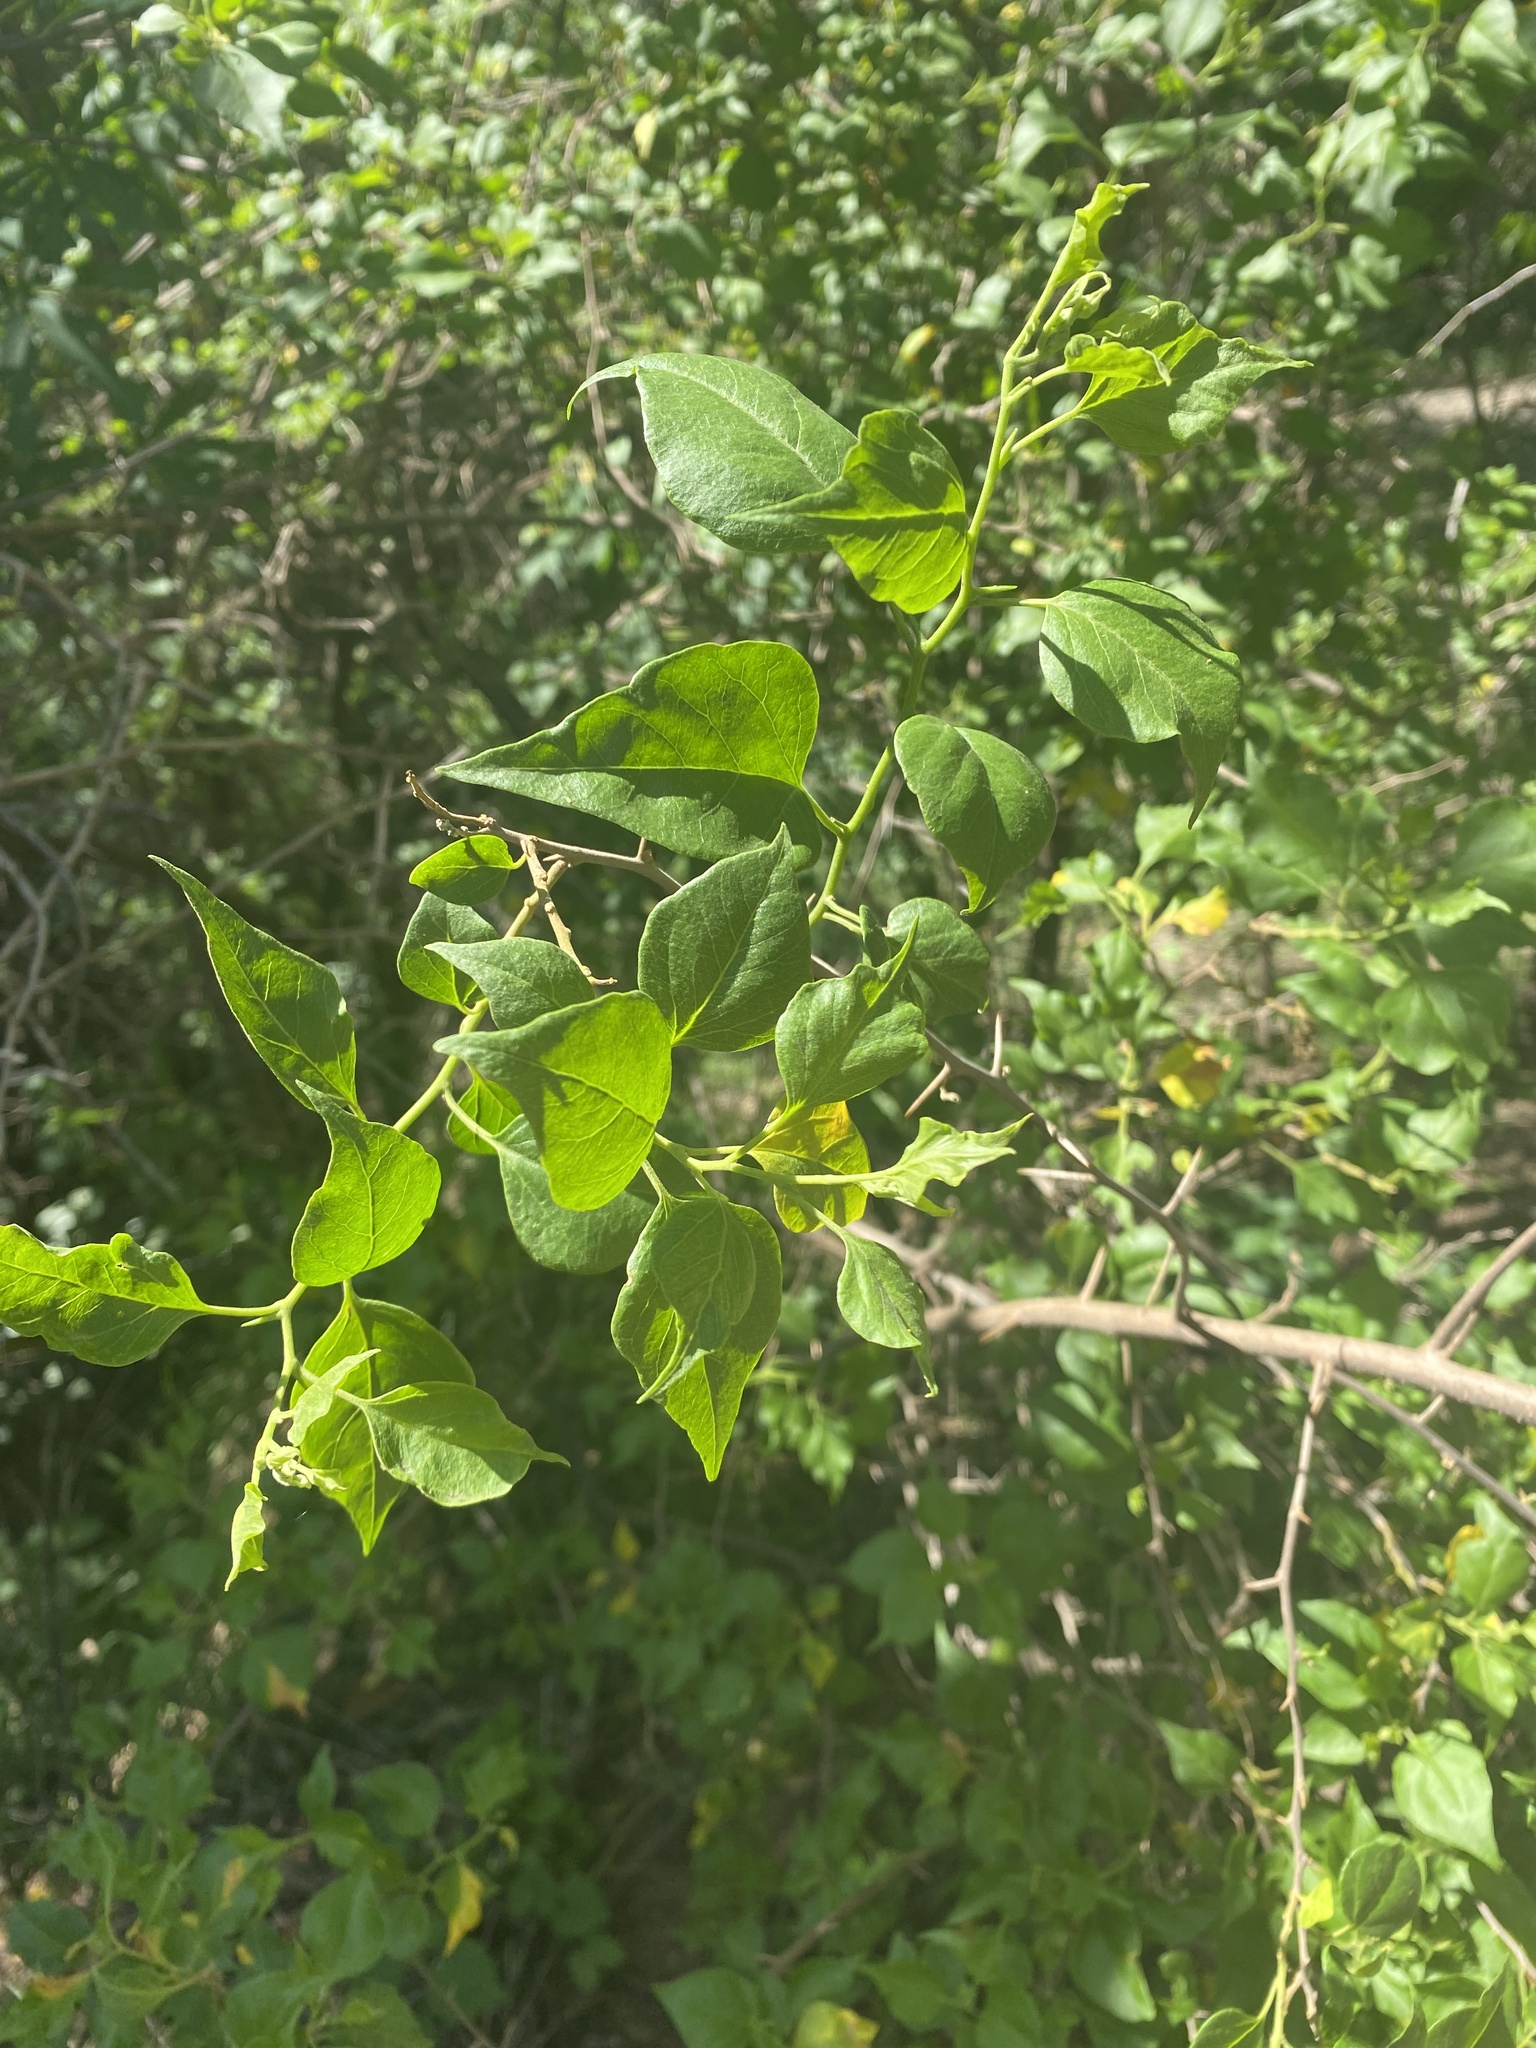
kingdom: Plantae
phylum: Tracheophyta
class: Magnoliopsida
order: Caryophyllales
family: Nyctaginaceae
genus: Bougainvillea
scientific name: Bougainvillea stipitata
